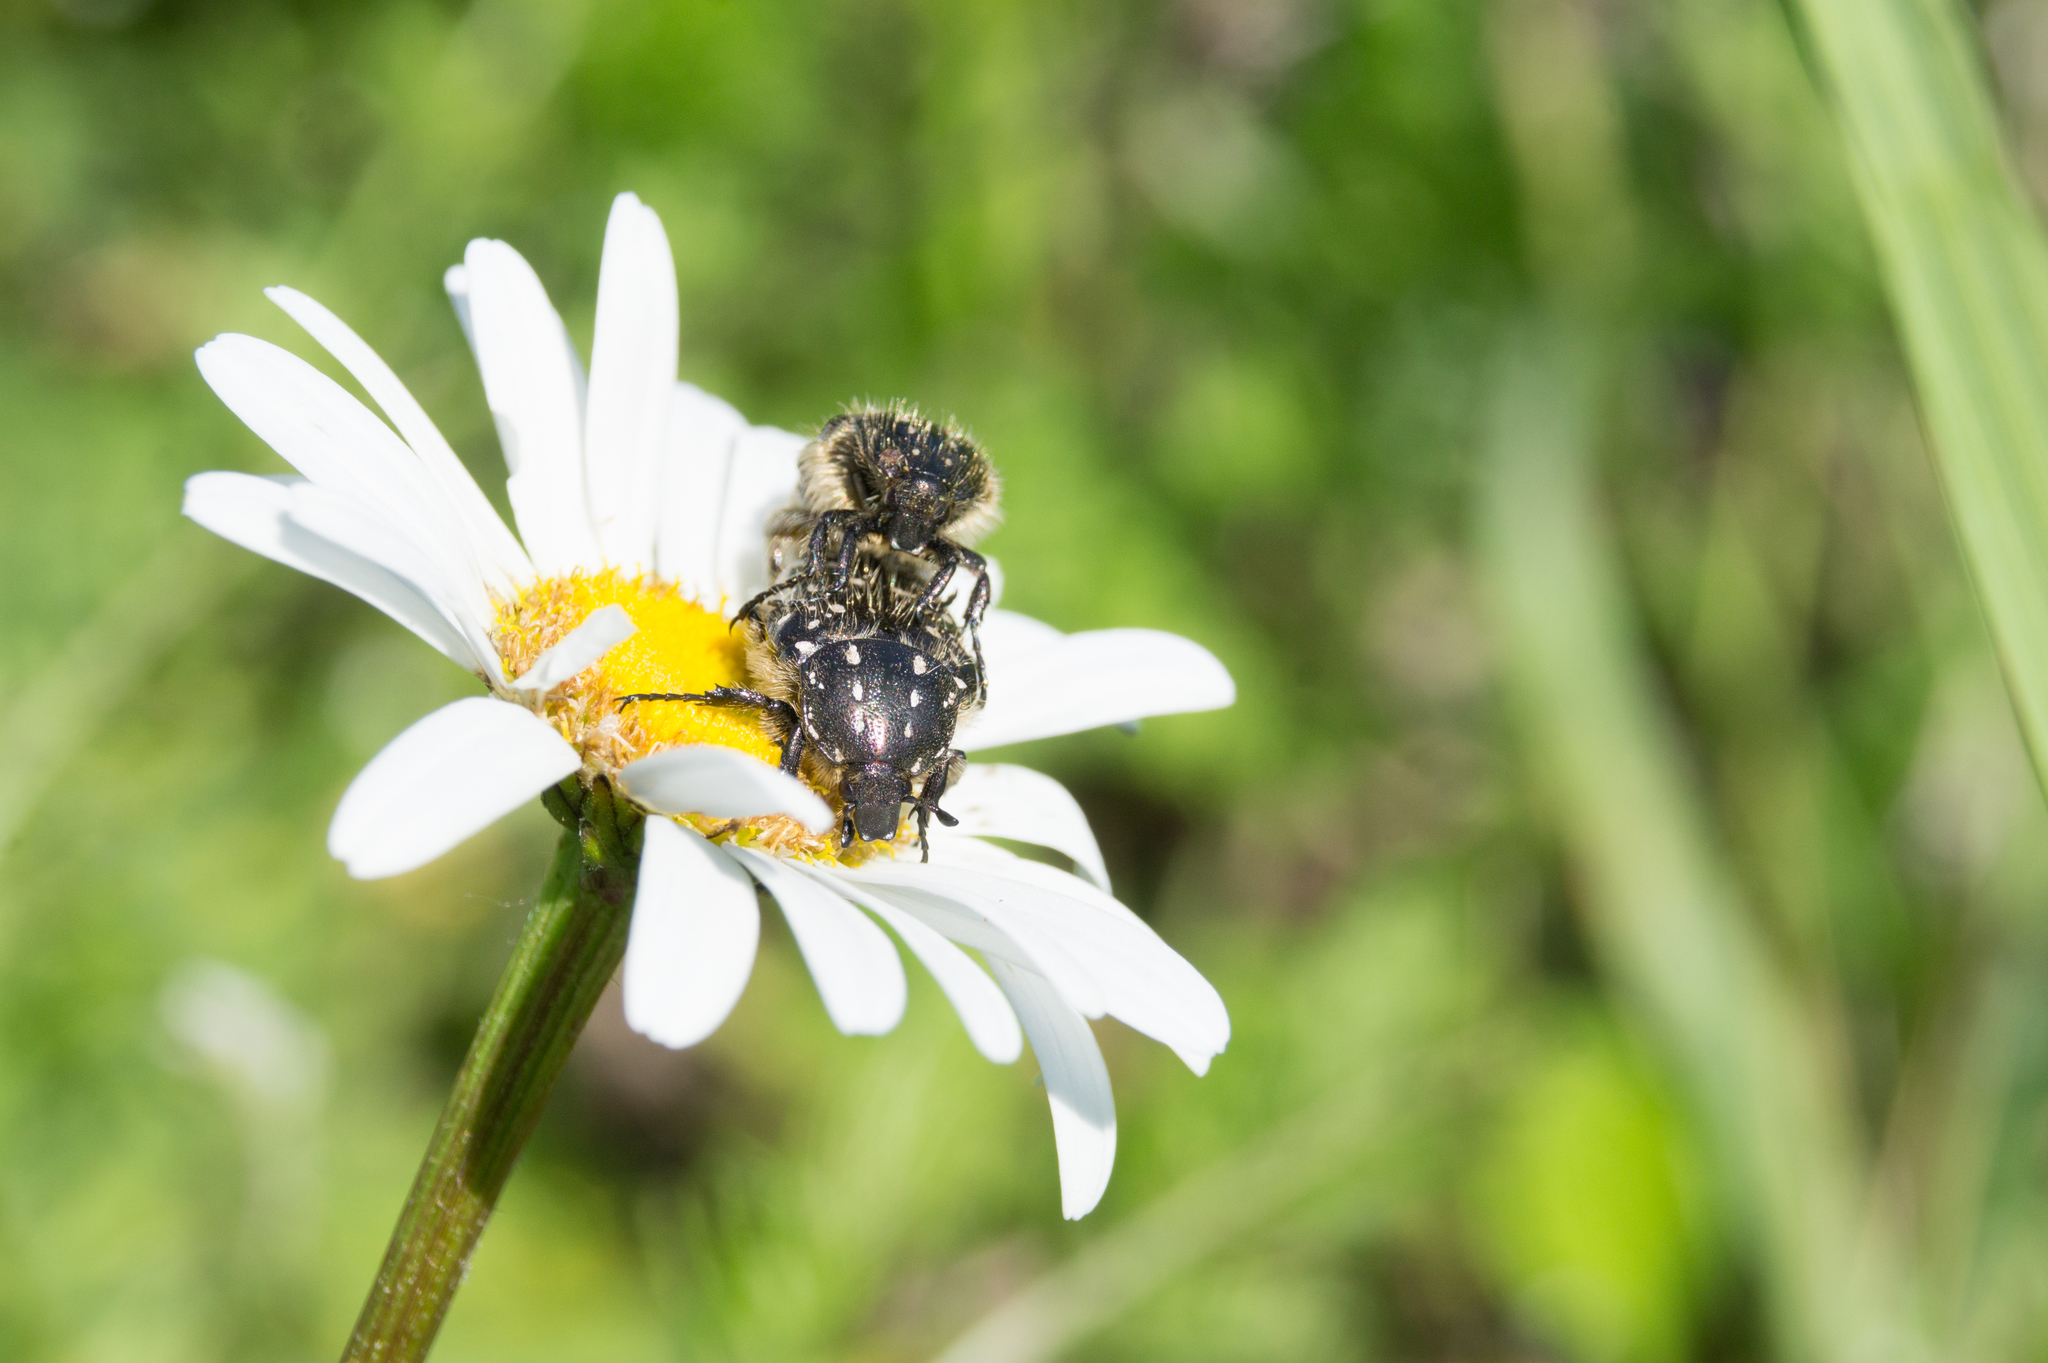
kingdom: Animalia
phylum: Arthropoda
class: Insecta
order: Coleoptera
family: Scarabaeidae
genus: Oxythyrea
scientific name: Oxythyrea funesta
